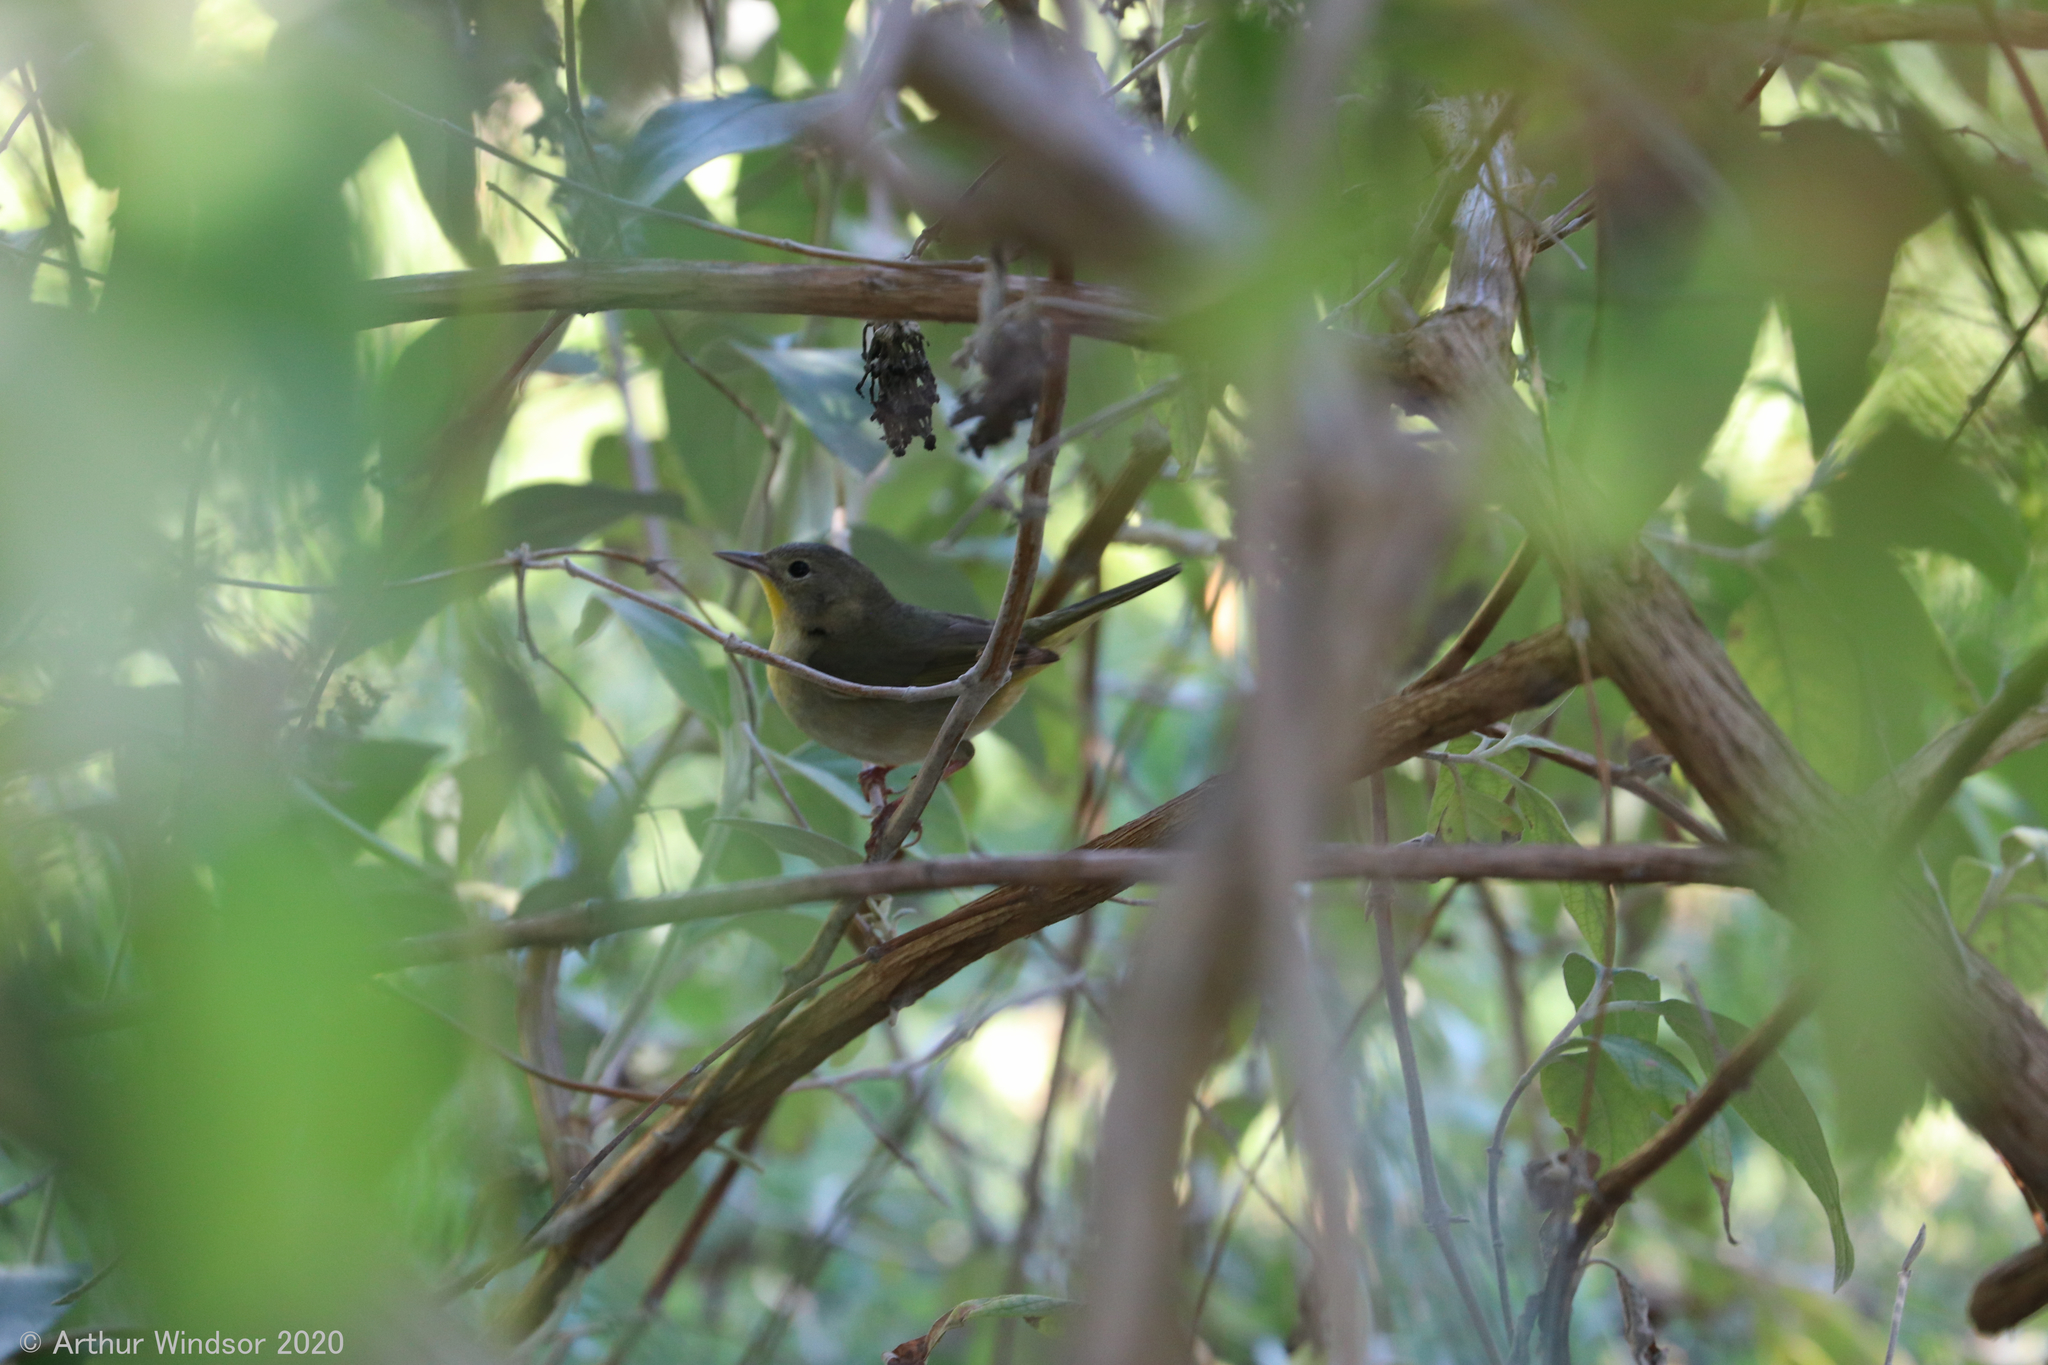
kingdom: Animalia
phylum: Chordata
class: Aves
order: Passeriformes
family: Parulidae
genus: Geothlypis
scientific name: Geothlypis trichas
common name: Common yellowthroat
